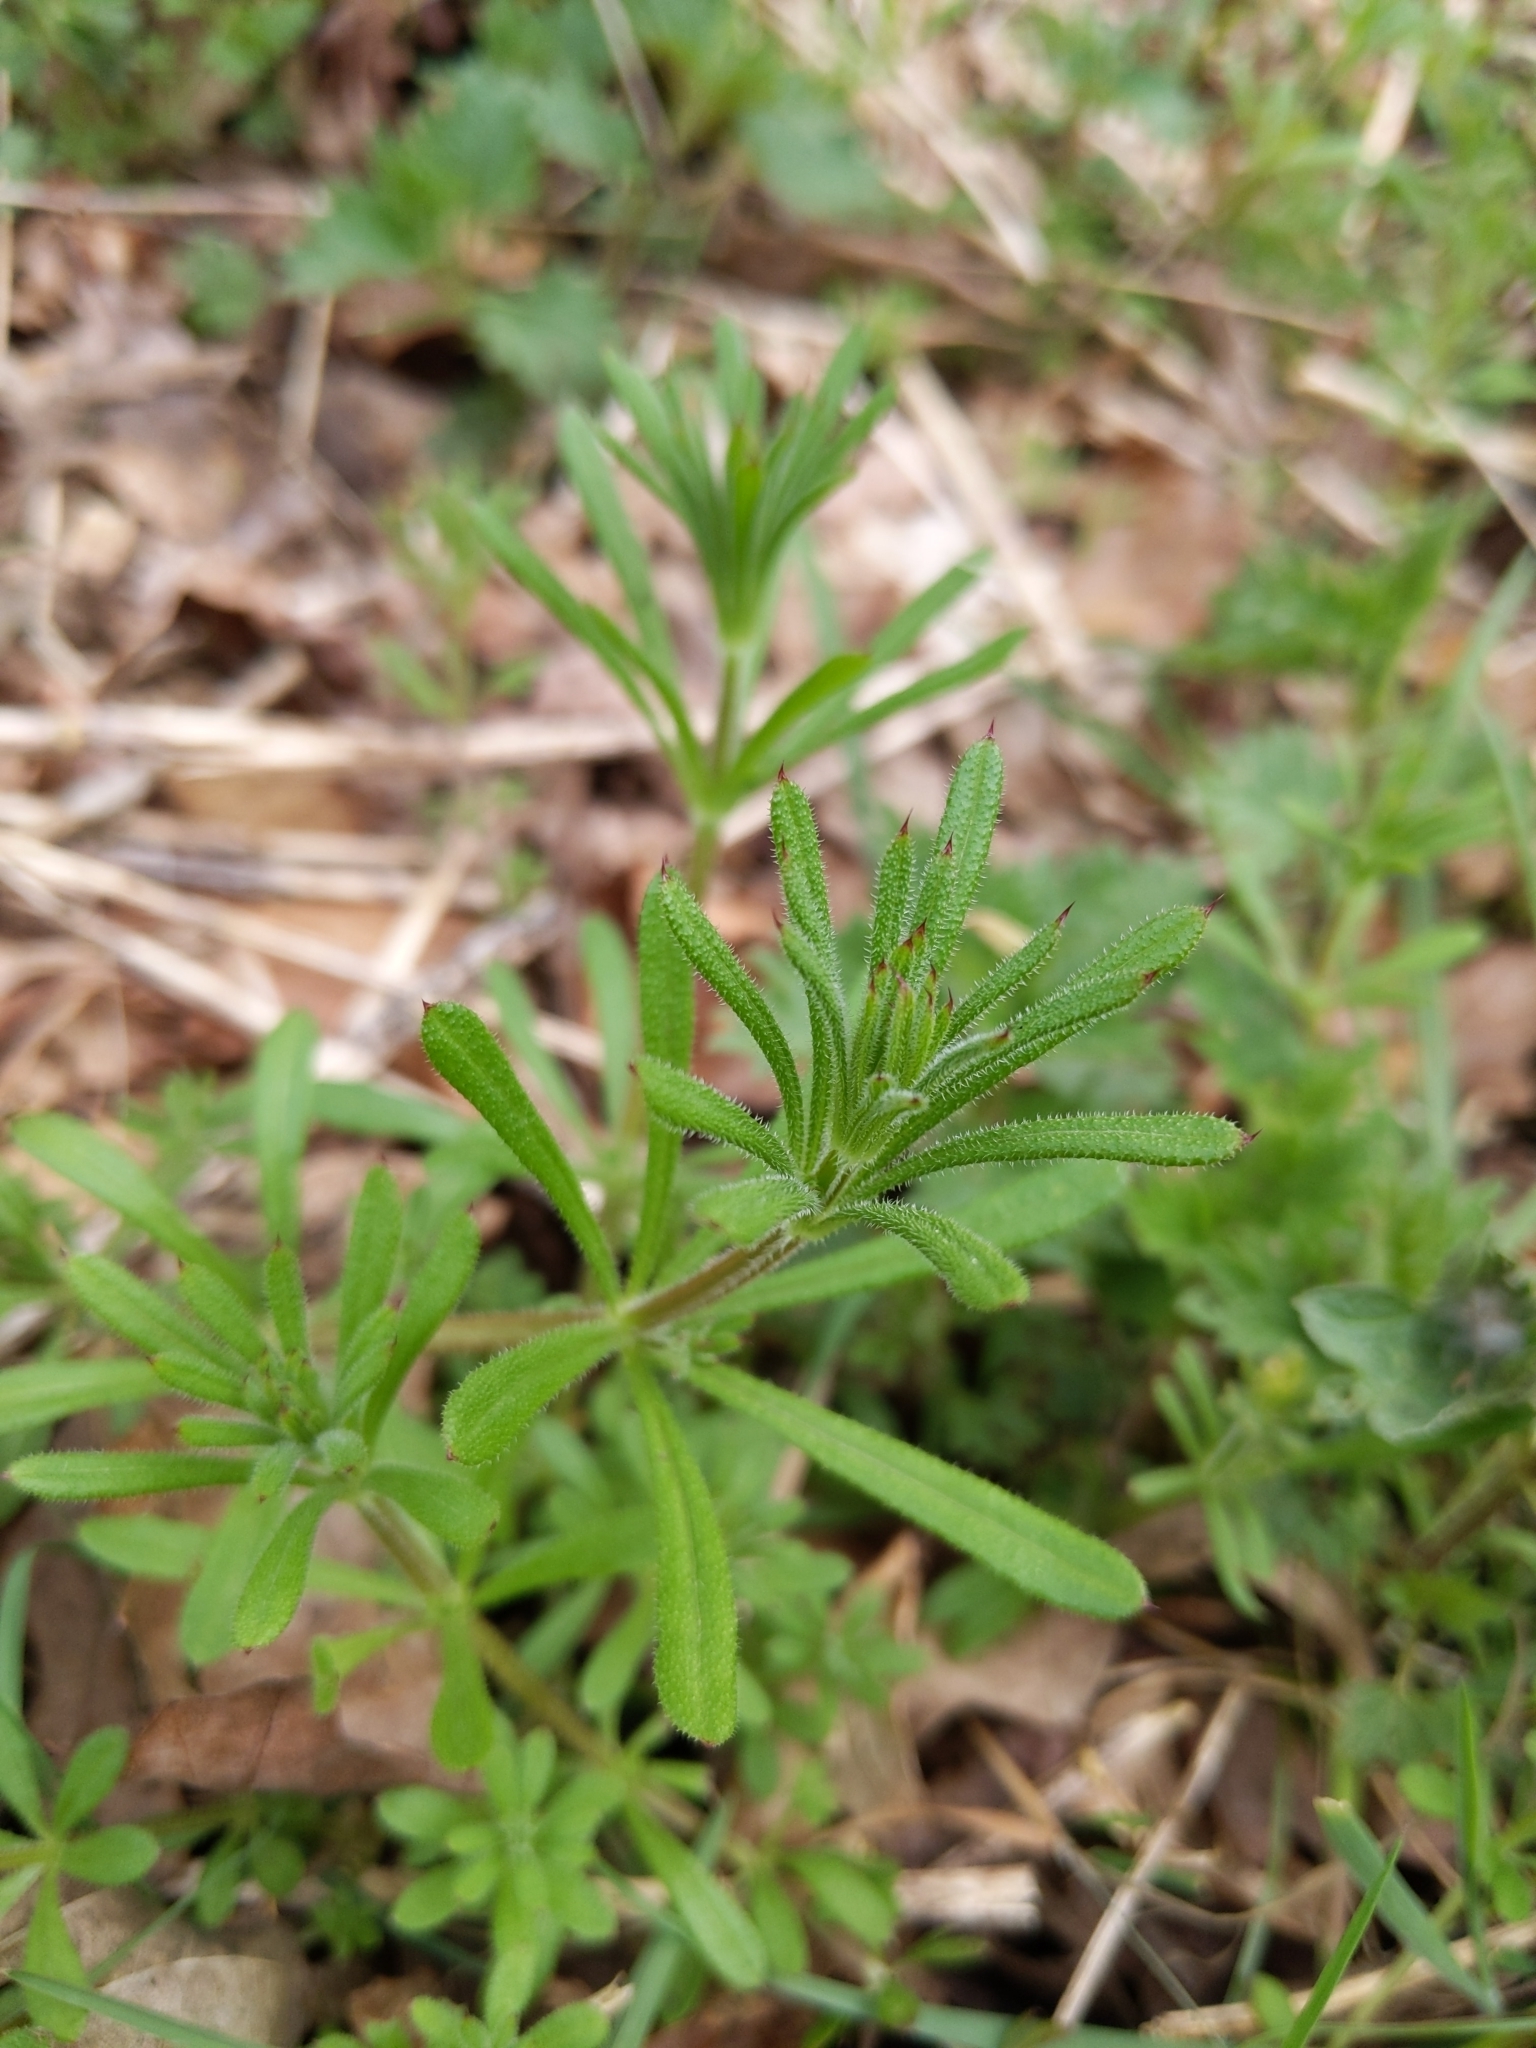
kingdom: Plantae
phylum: Tracheophyta
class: Magnoliopsida
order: Gentianales
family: Rubiaceae
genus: Galium
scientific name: Galium aparine
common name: Cleavers
